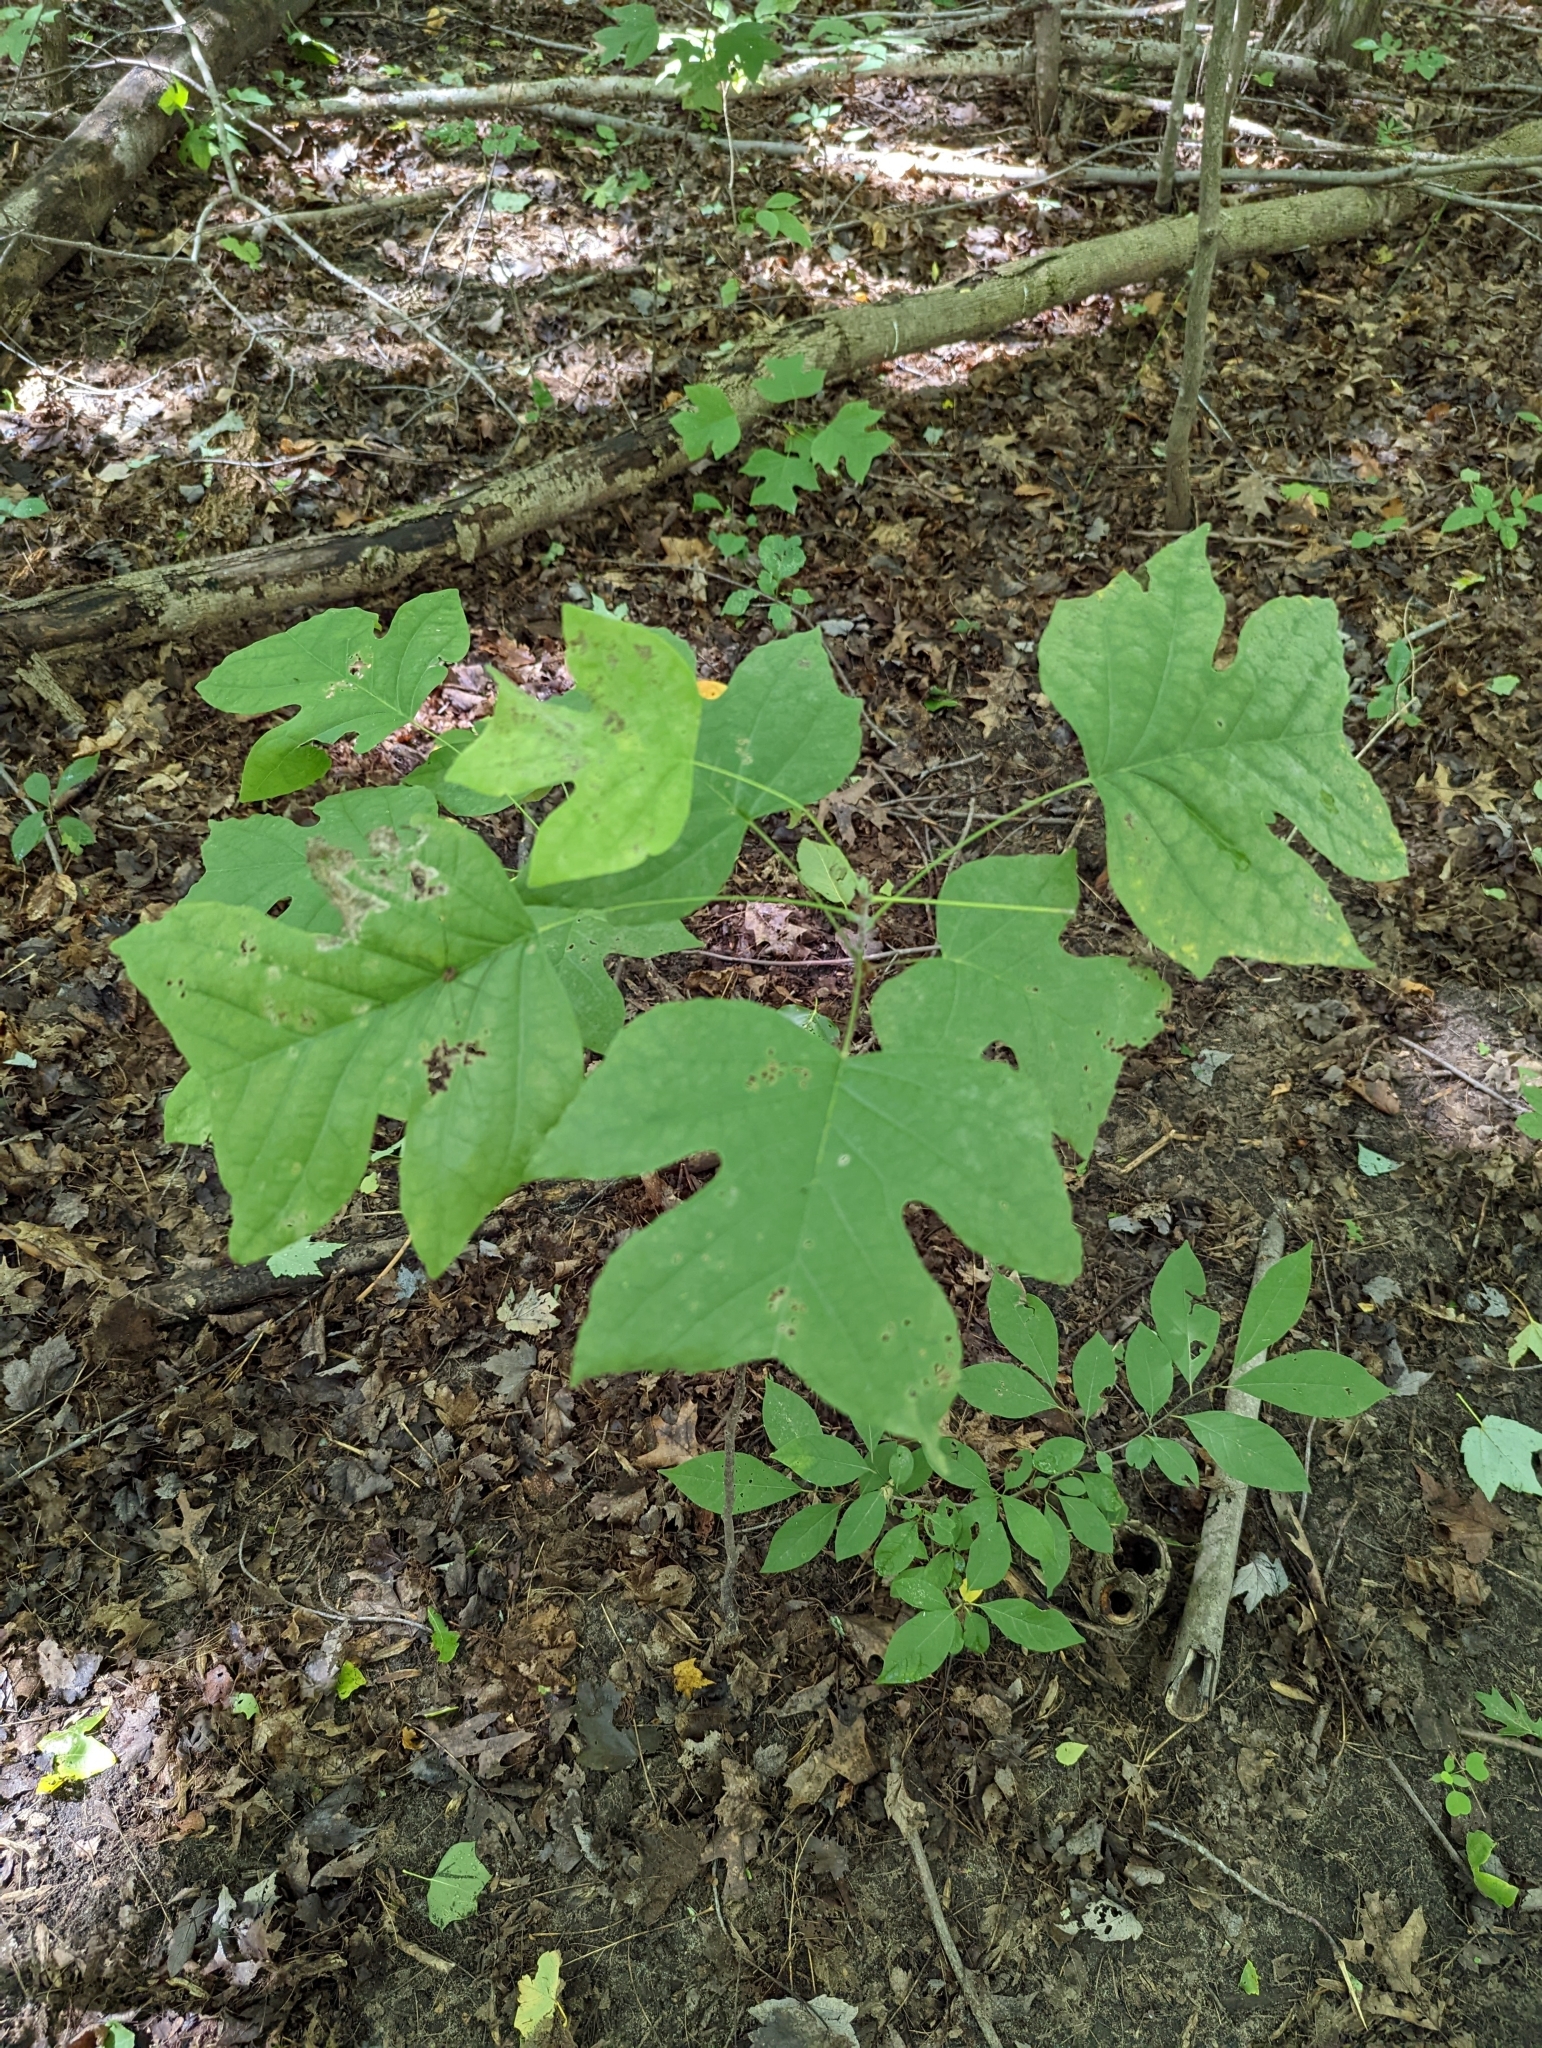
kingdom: Plantae
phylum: Tracheophyta
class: Magnoliopsida
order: Magnoliales
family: Magnoliaceae
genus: Liriodendron
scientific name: Liriodendron tulipifera
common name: Tulip tree
